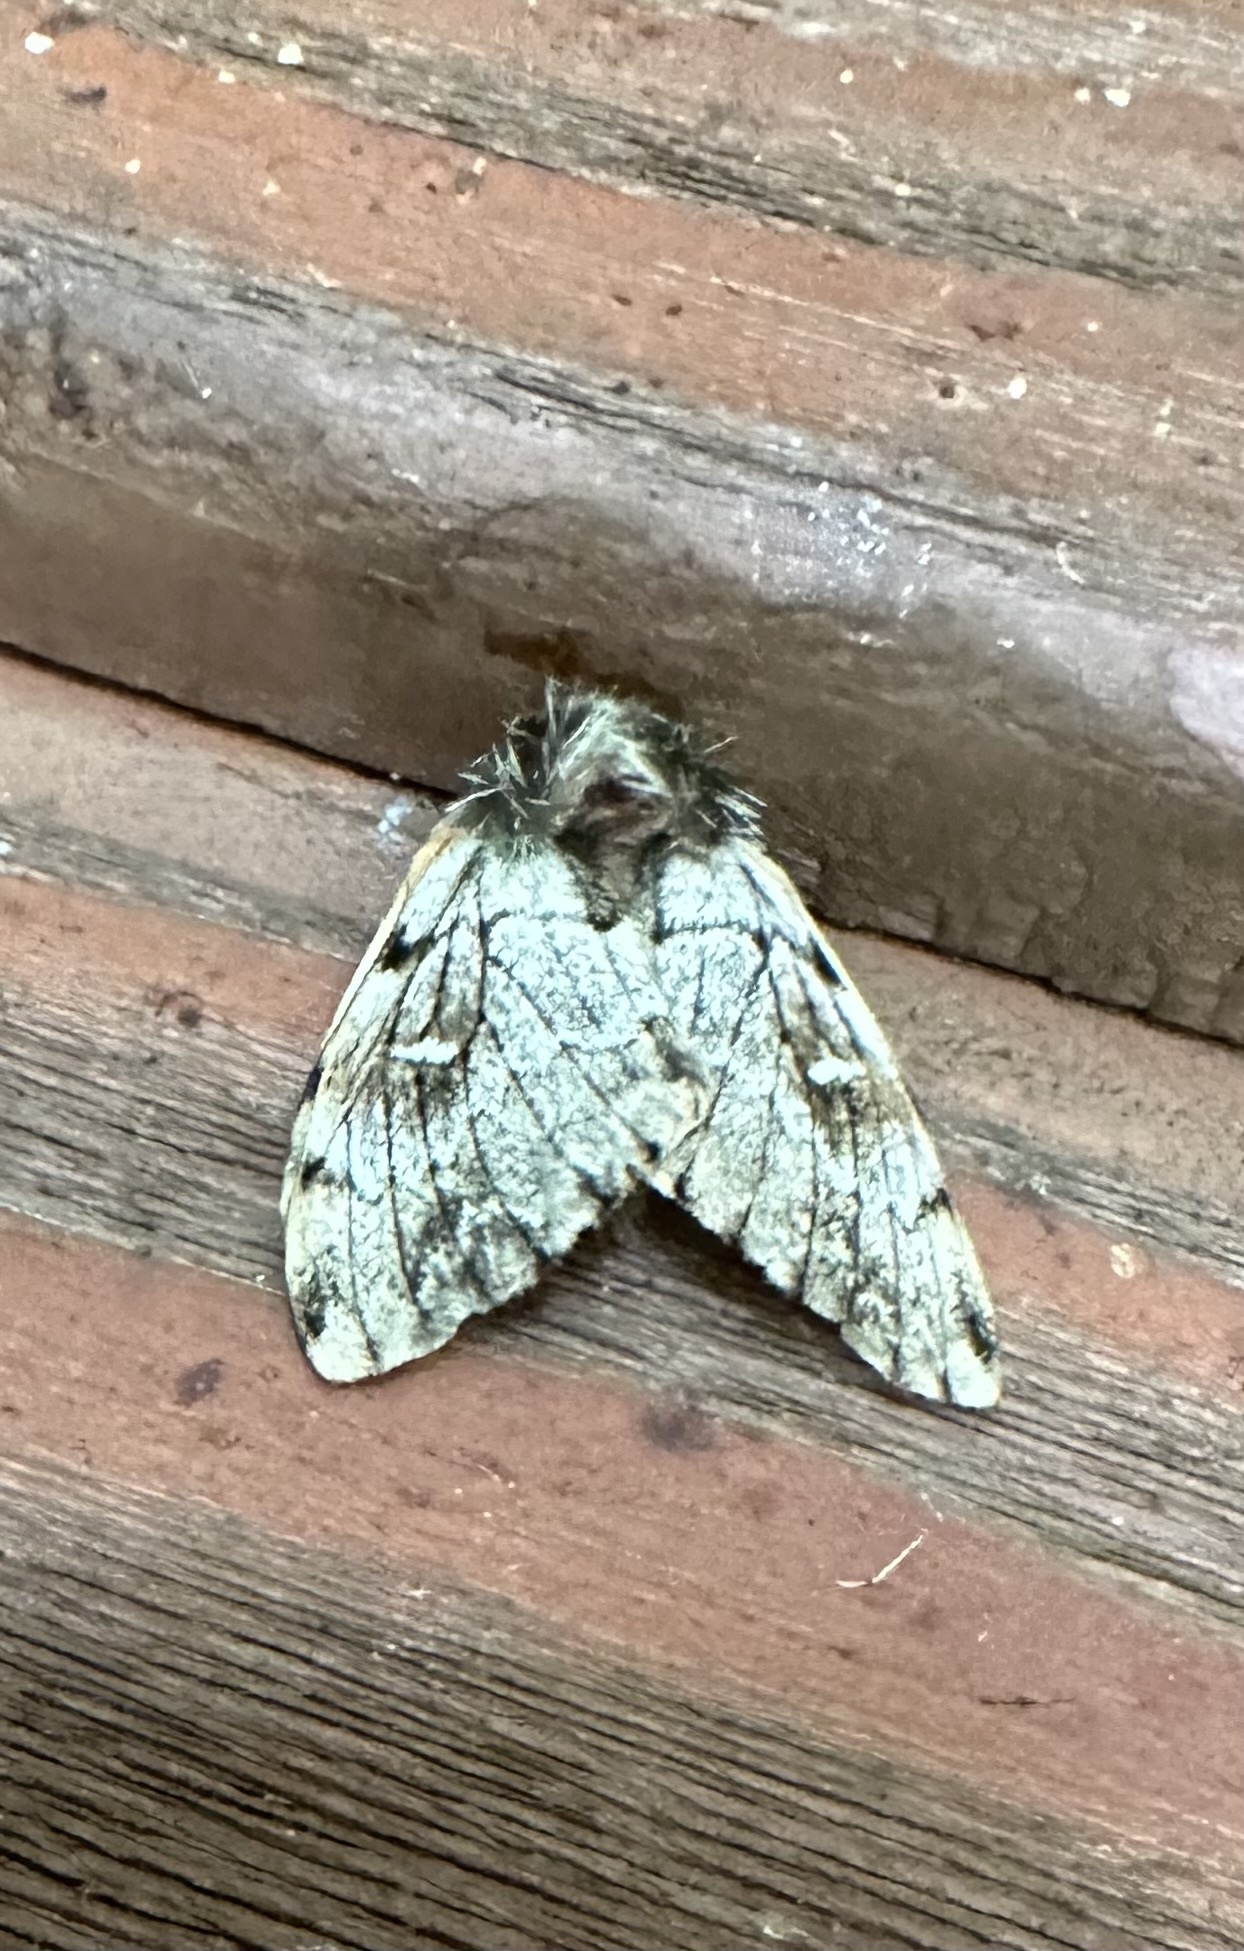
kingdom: Animalia
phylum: Arthropoda
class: Insecta
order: Lepidoptera
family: Saturniidae
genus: Ormiscodes
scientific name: Ormiscodes nigrosignata
